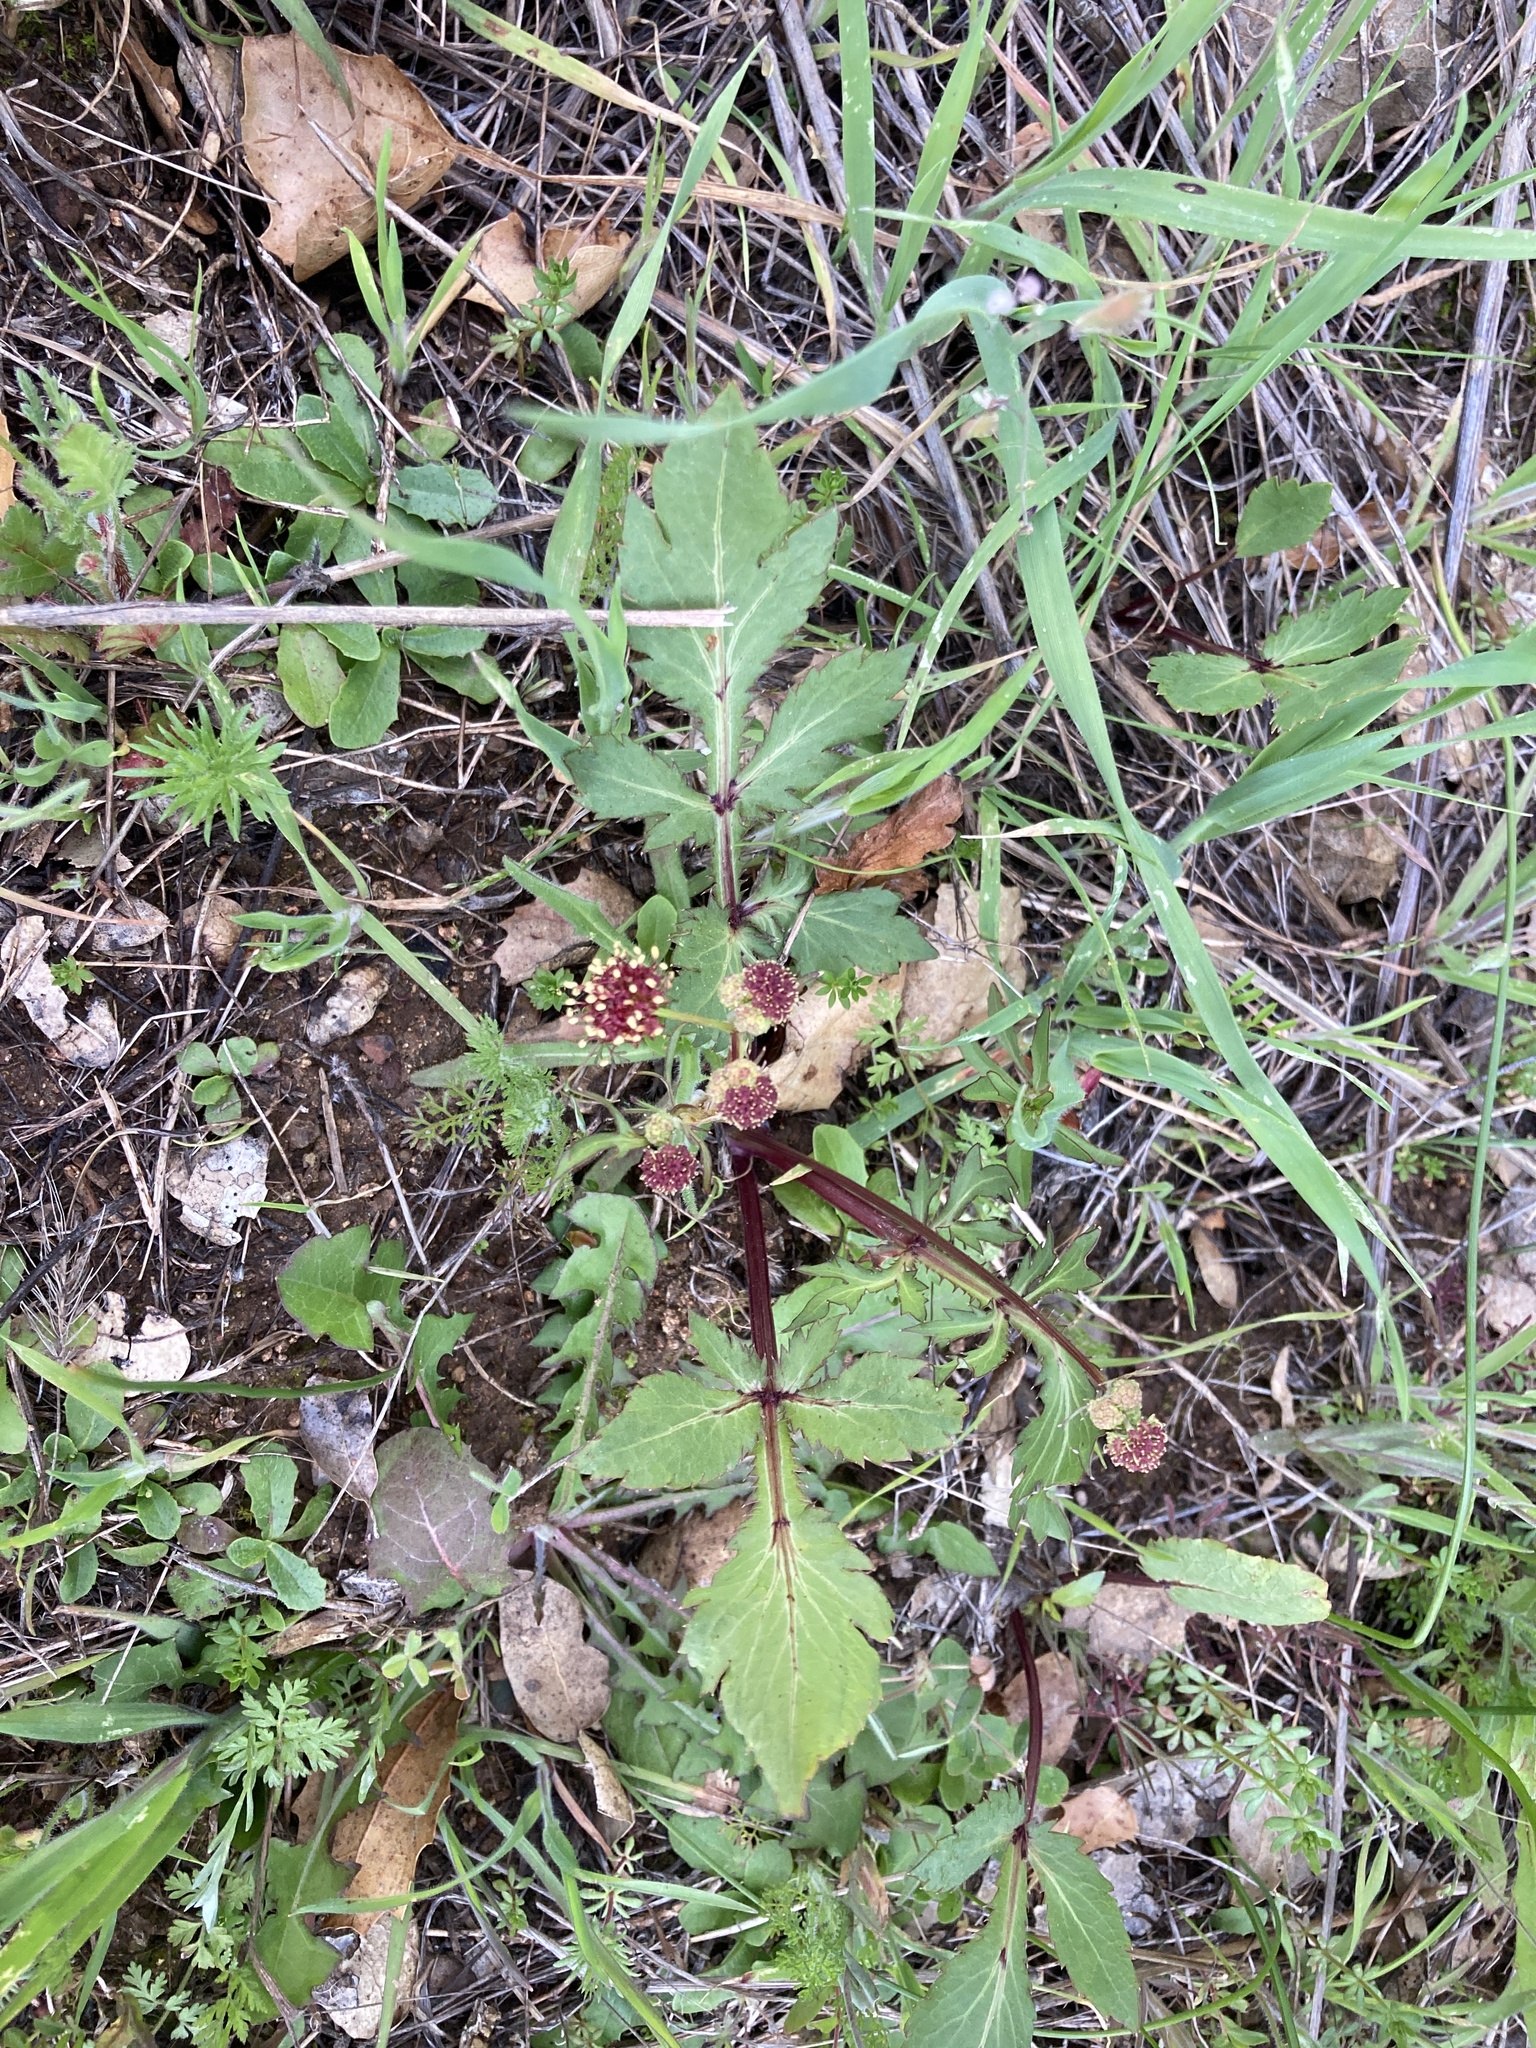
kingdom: Plantae
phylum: Tracheophyta
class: Magnoliopsida
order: Apiales
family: Apiaceae
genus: Sanicula
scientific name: Sanicula bipinnatifida
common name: Shoe-buttons
